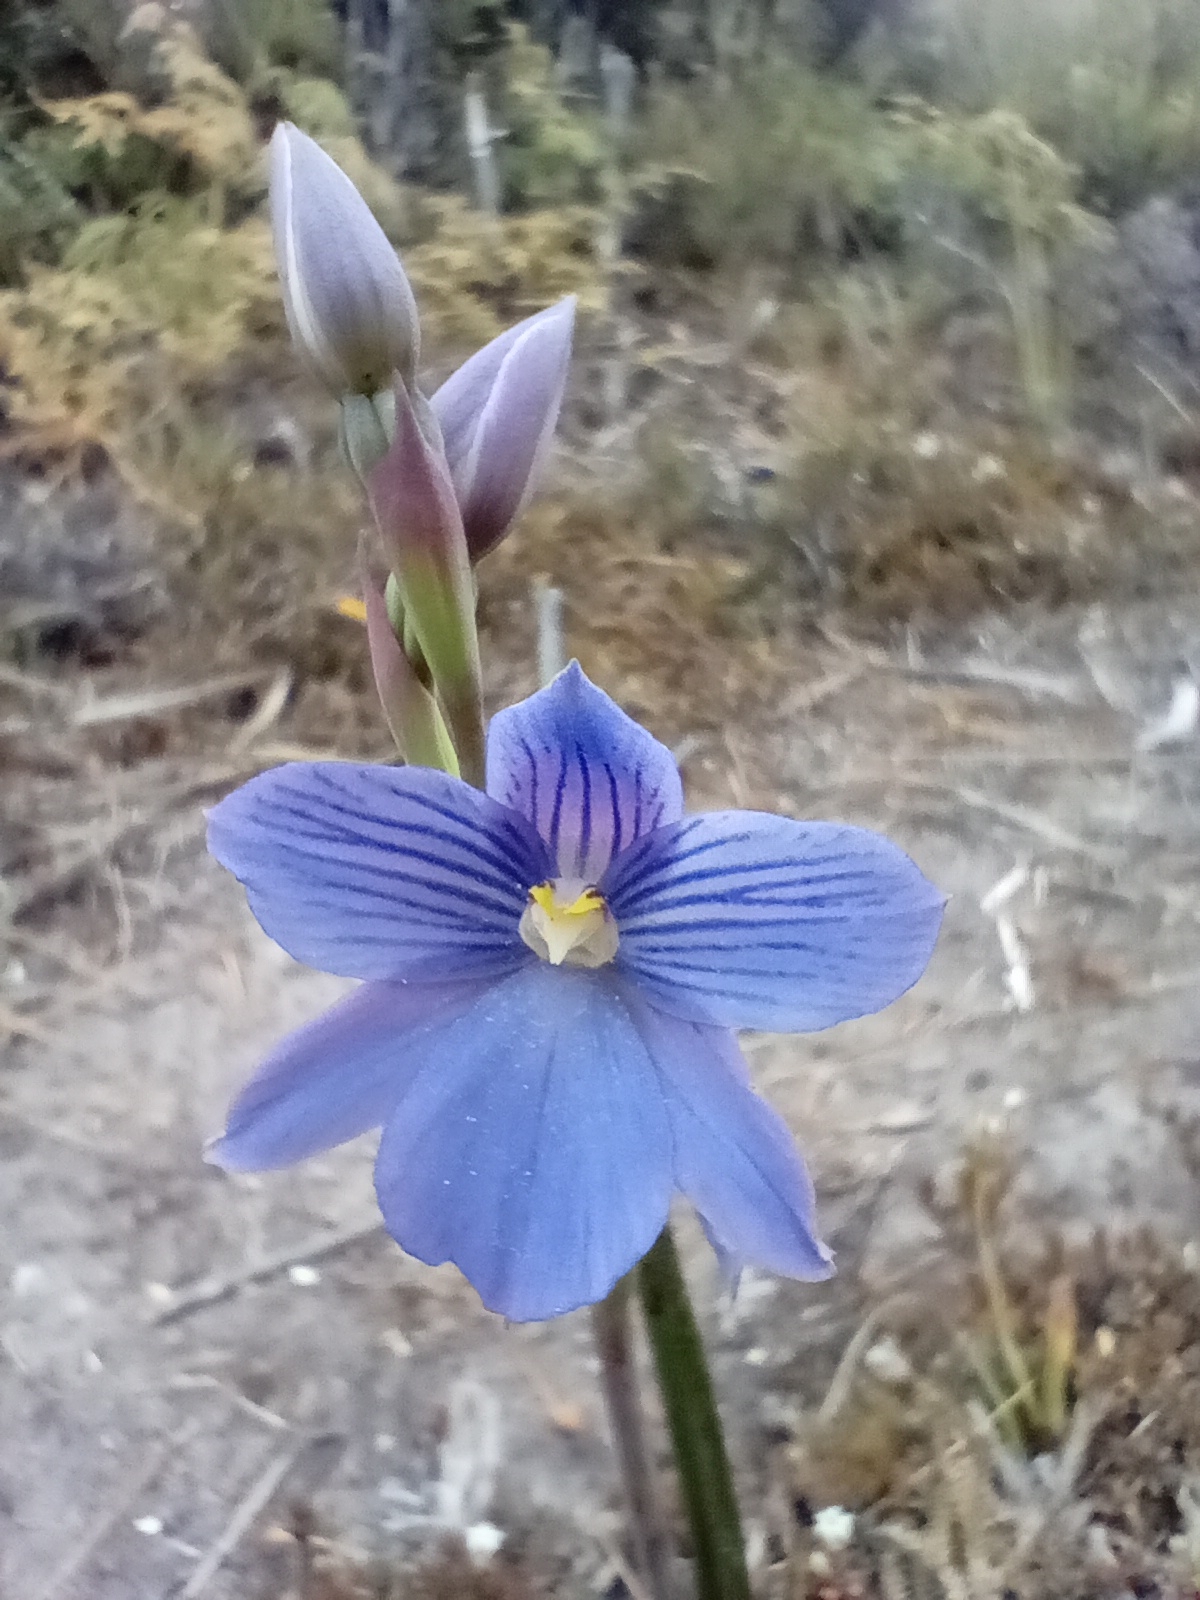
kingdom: Plantae
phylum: Tracheophyta
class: Liliopsida
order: Asparagales
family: Orchidaceae
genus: Thelymitra
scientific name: Thelymitra cyanea
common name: Blue sun-orchid
